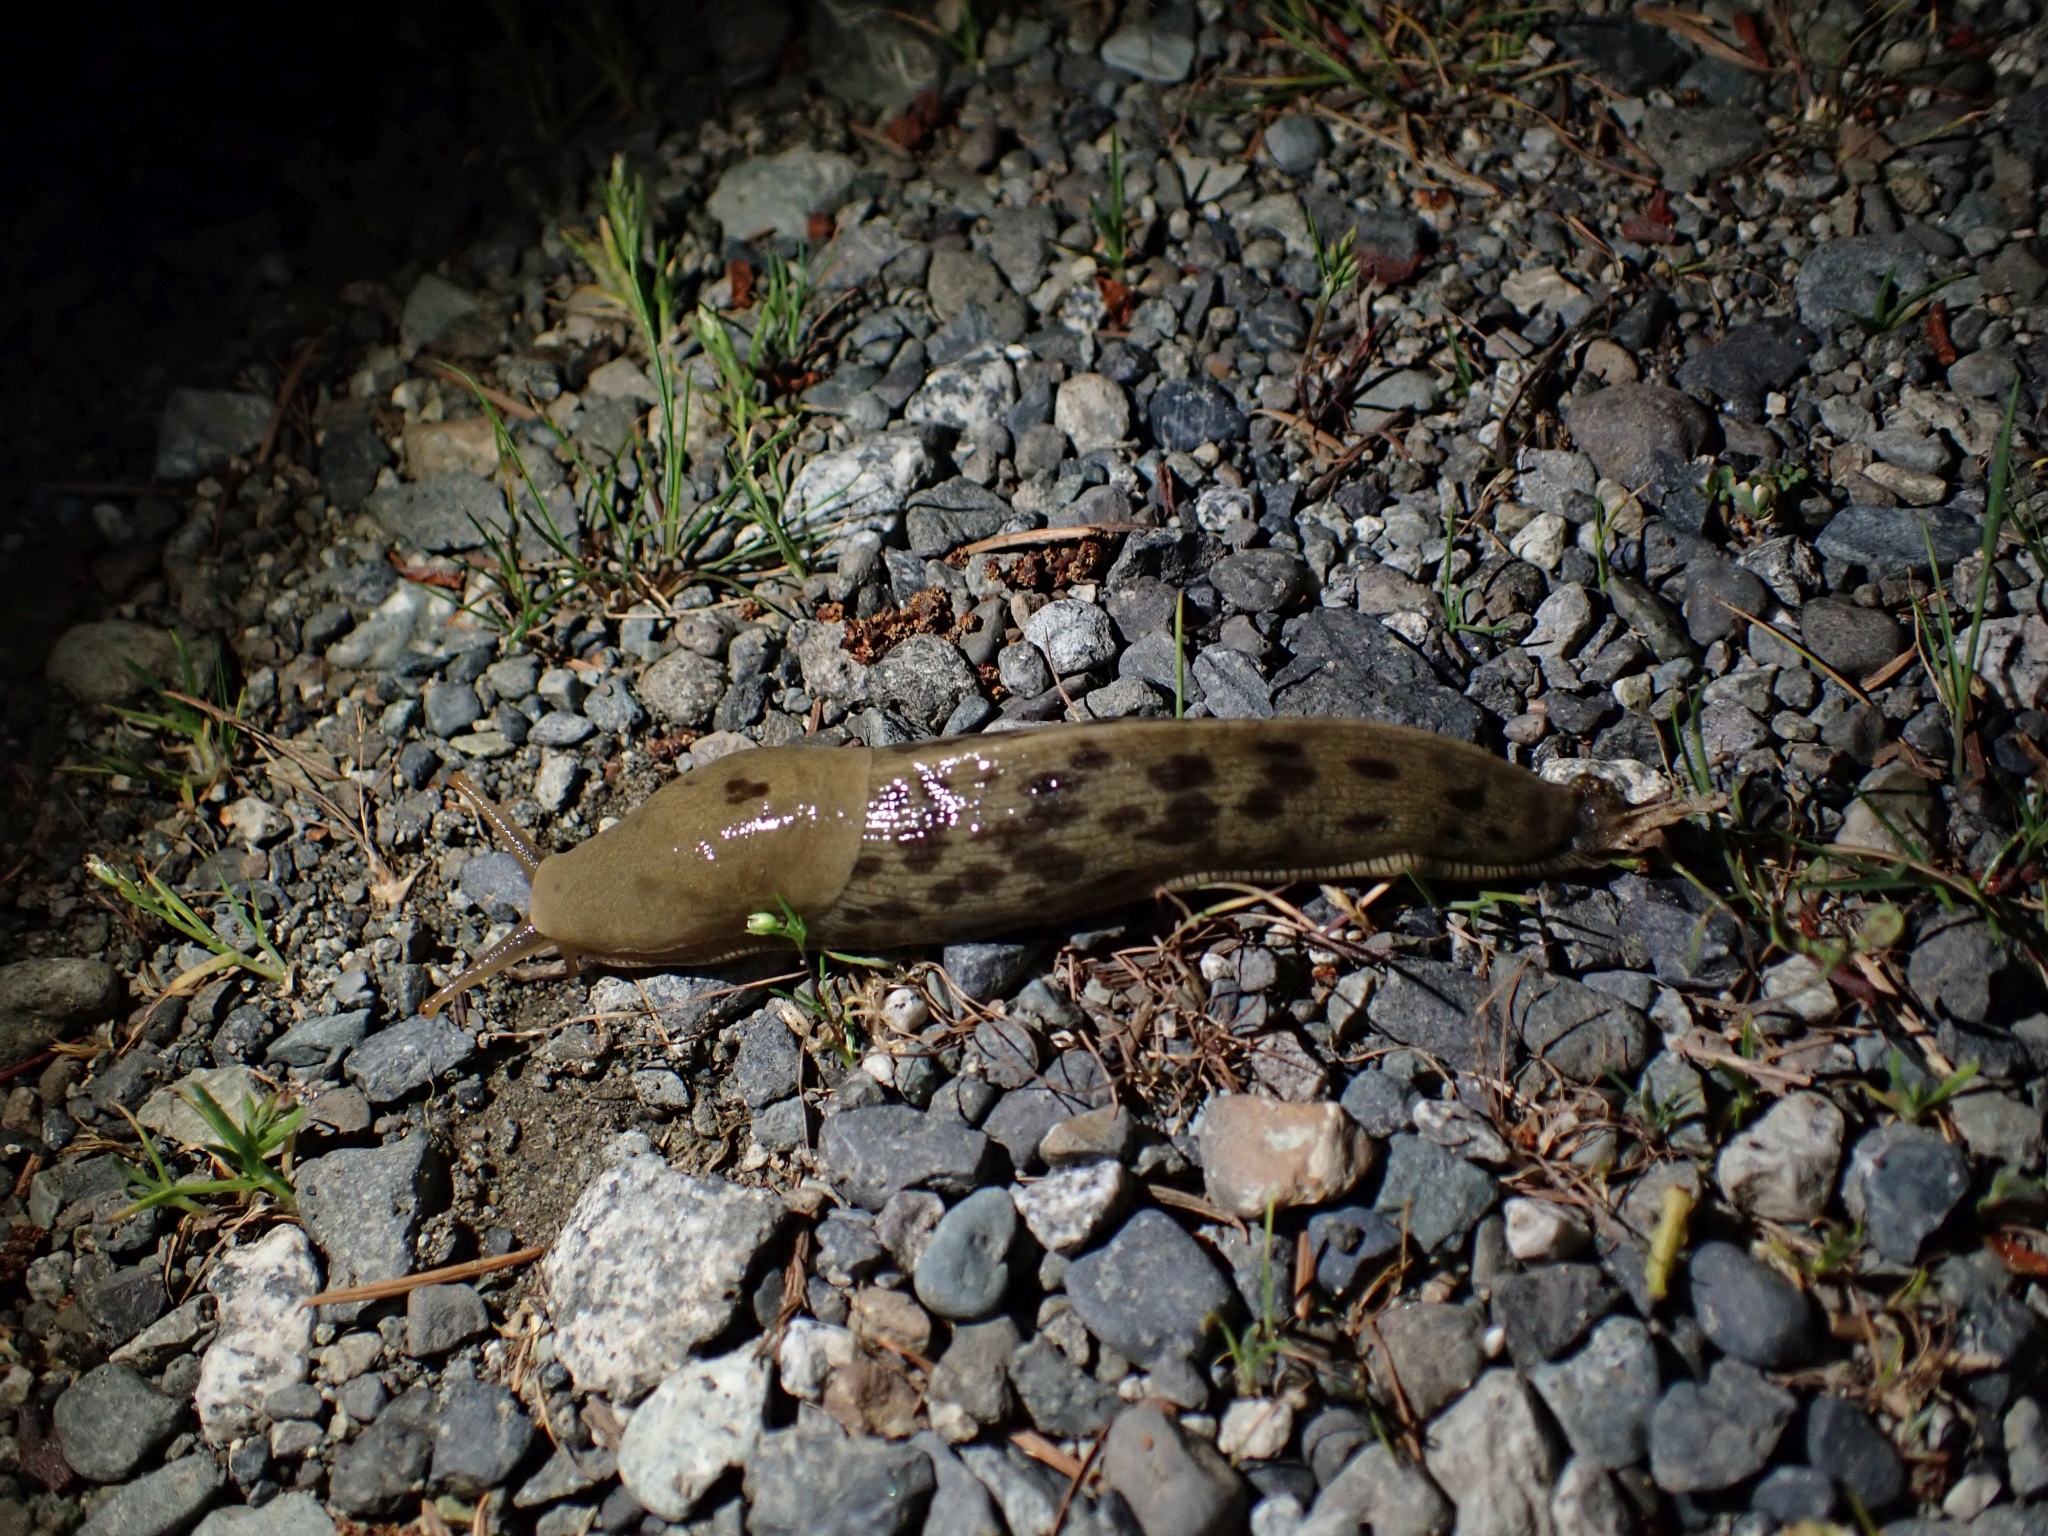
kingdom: Animalia
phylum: Mollusca
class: Gastropoda
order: Stylommatophora
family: Ariolimacidae
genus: Ariolimax
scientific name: Ariolimax columbianus
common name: Pacific banana slug
